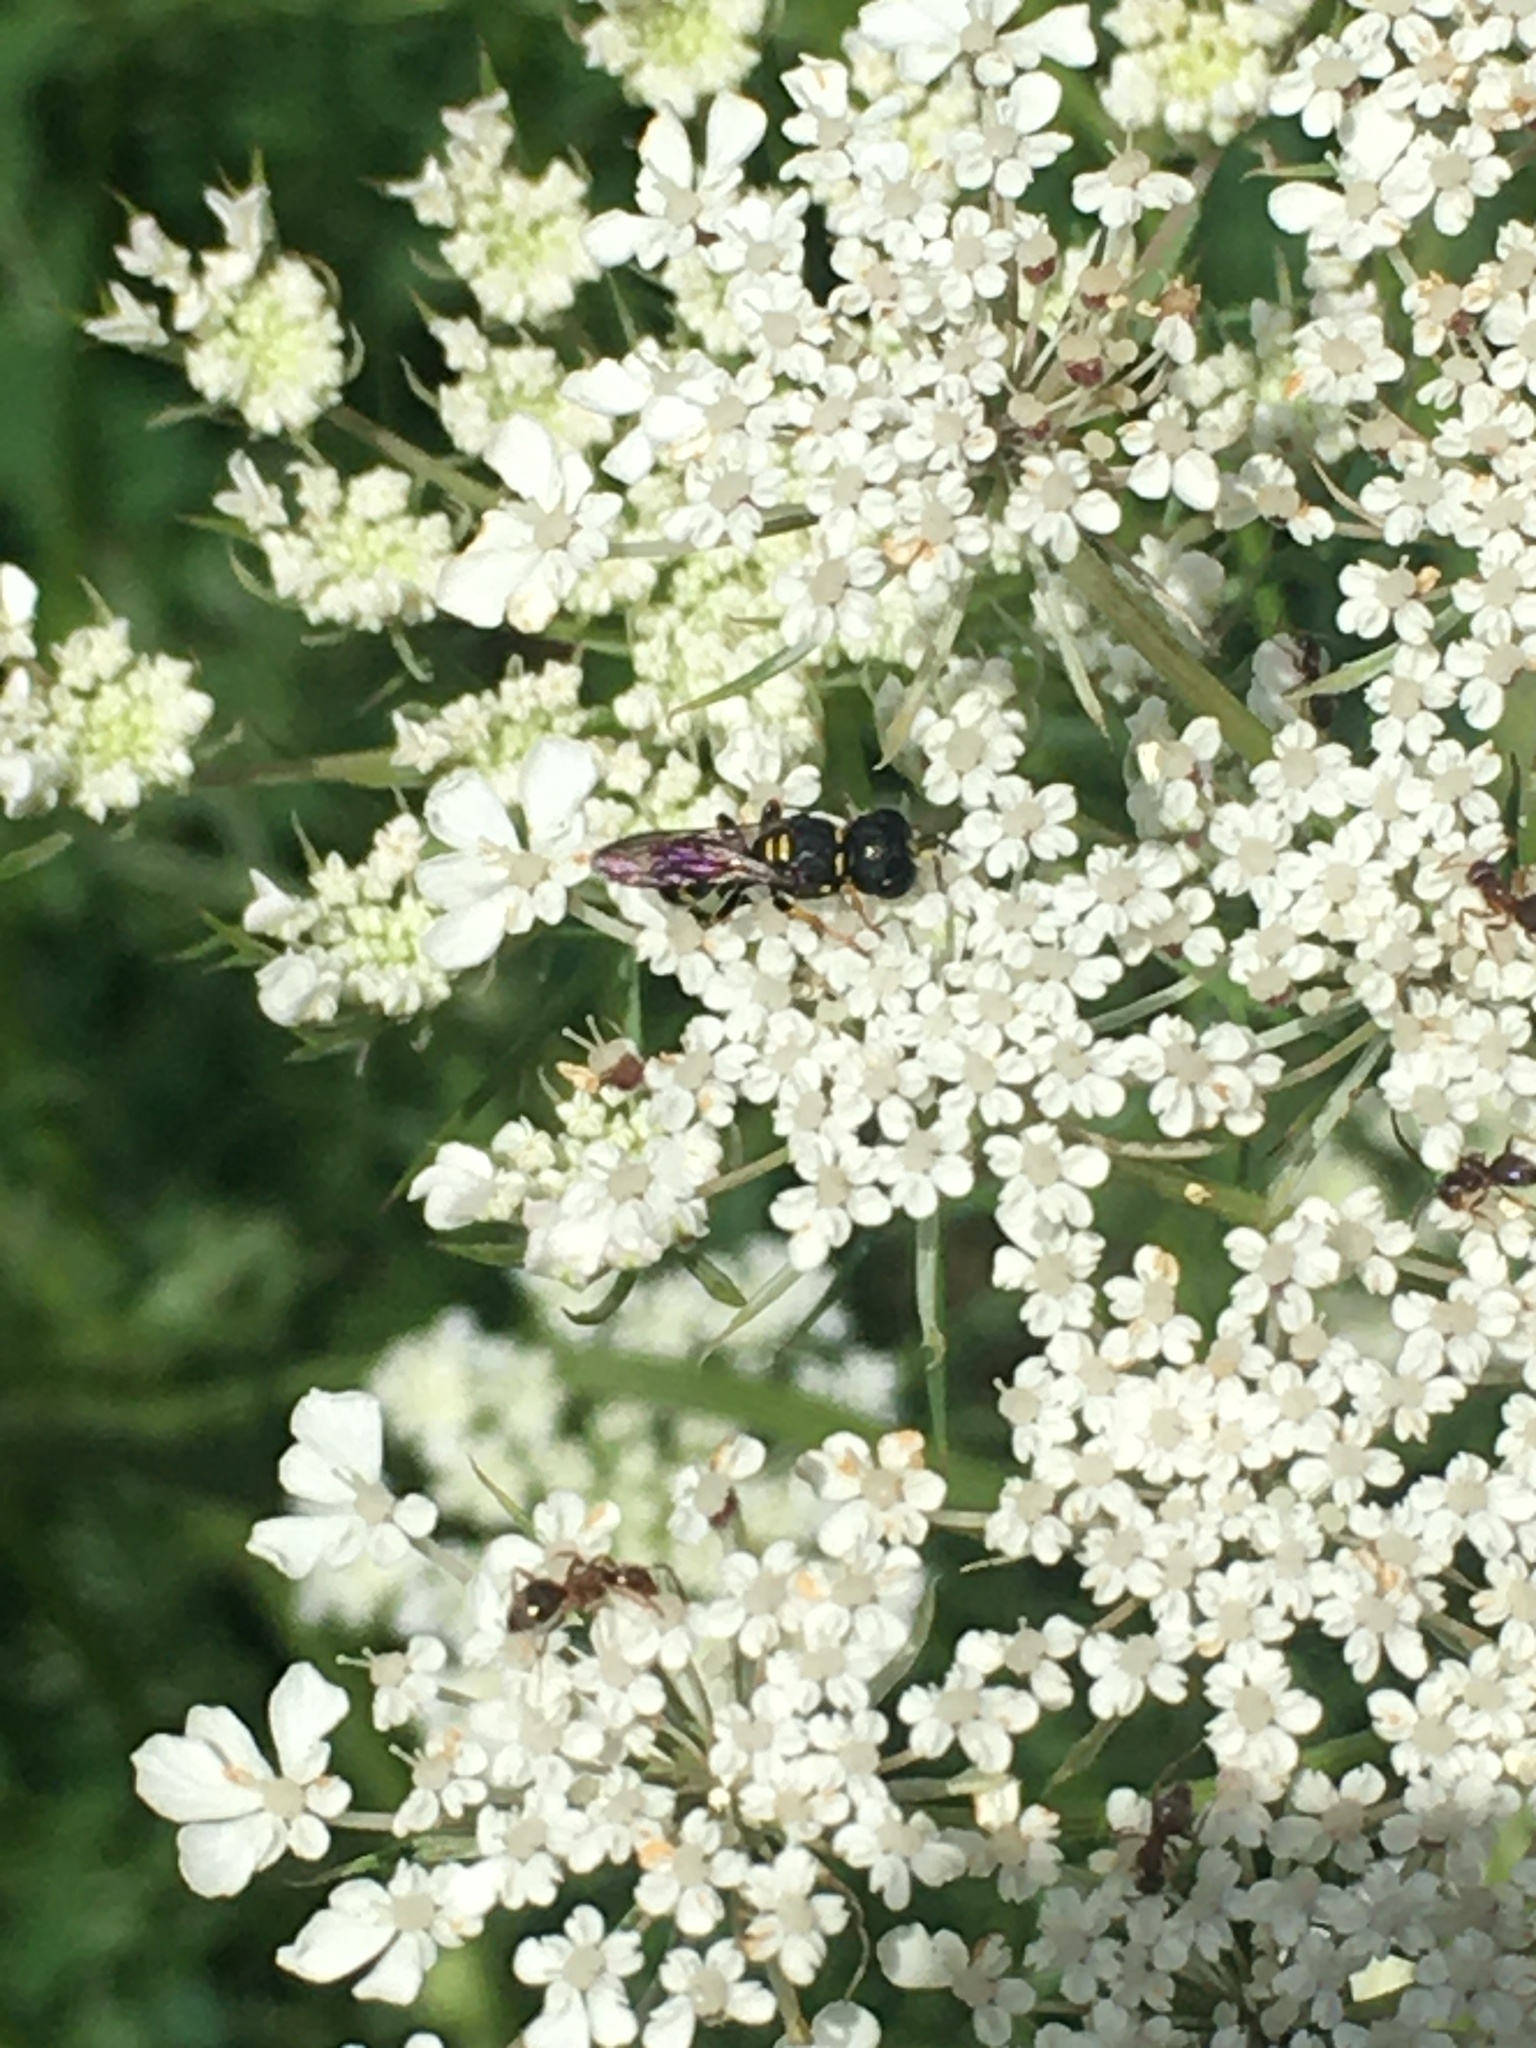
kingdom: Animalia
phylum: Arthropoda
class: Insecta
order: Hymenoptera
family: Crabronidae
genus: Ectemnius
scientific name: Ectemnius stirpicola
